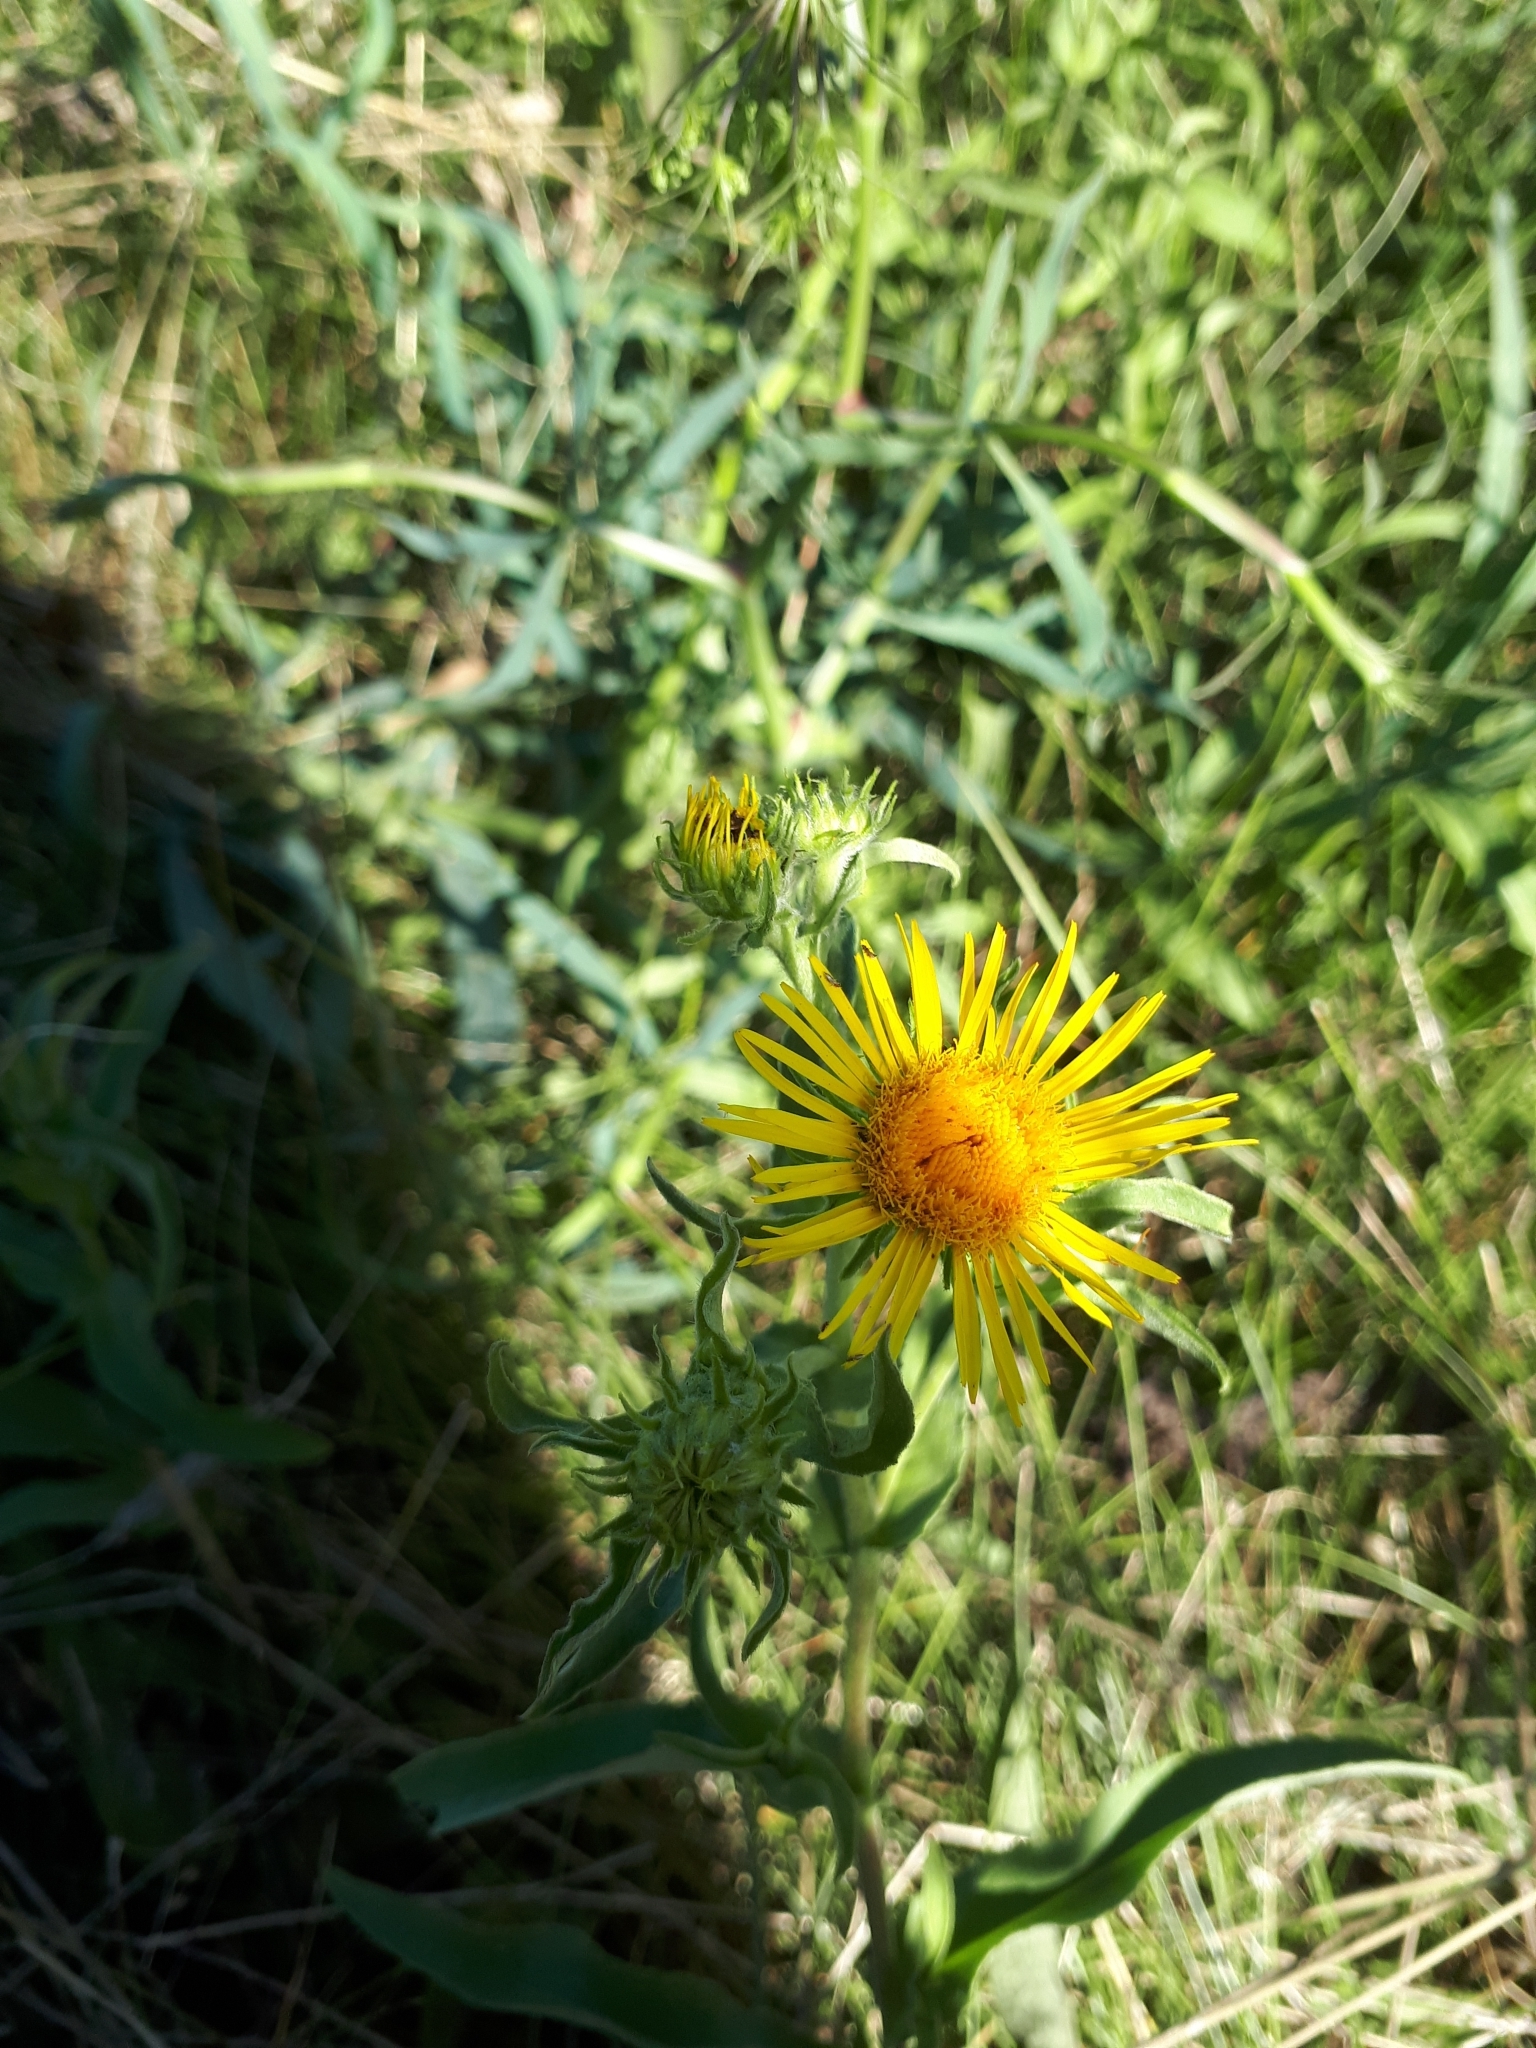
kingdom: Plantae
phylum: Tracheophyta
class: Magnoliopsida
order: Asterales
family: Asteraceae
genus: Pentanema
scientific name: Pentanema britannicum
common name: British elecampane
